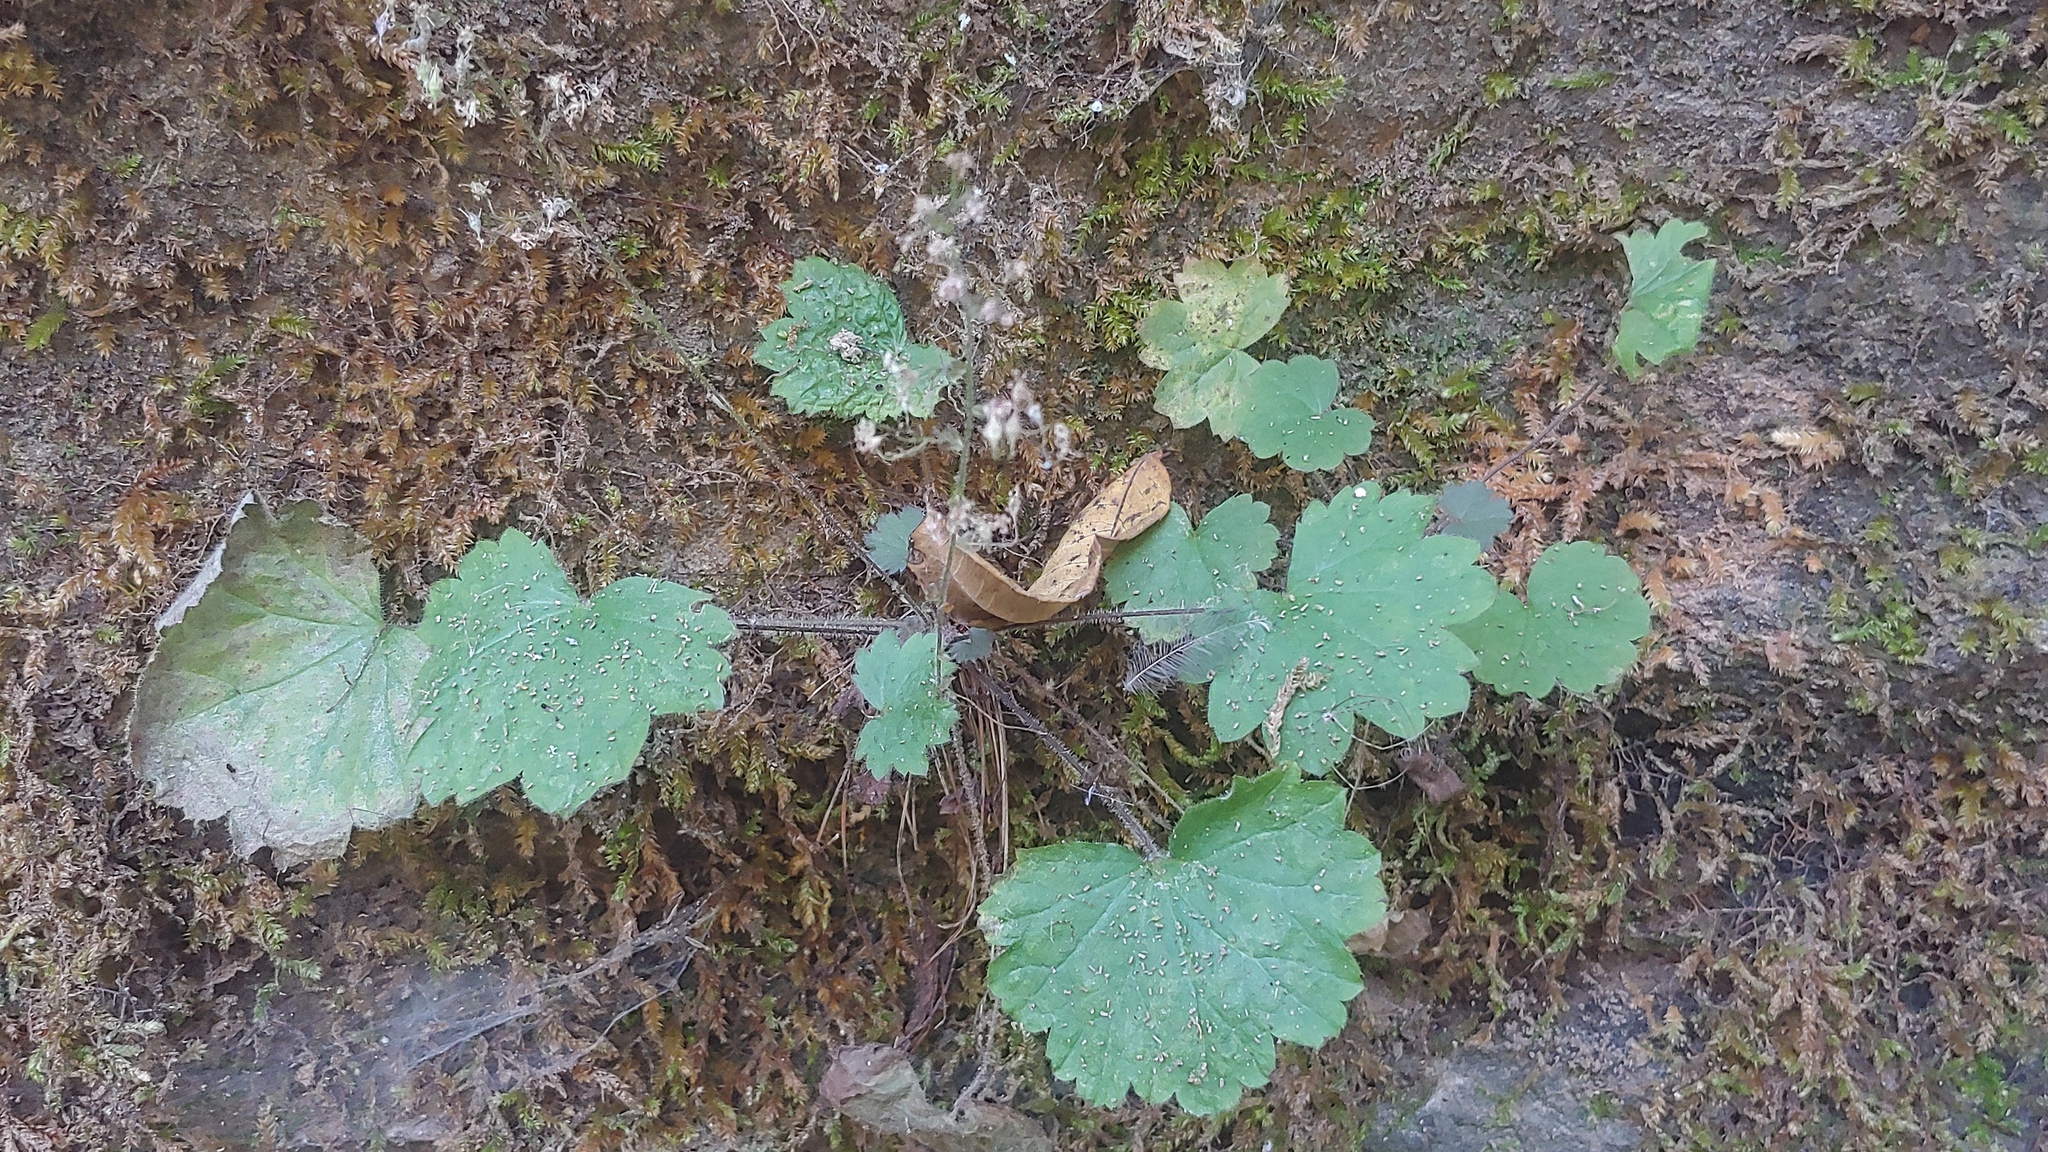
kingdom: Plantae
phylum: Tracheophyta
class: Magnoliopsida
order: Saxifragales
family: Saxifragaceae
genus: Heuchera
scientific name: Heuchera missouriensis
